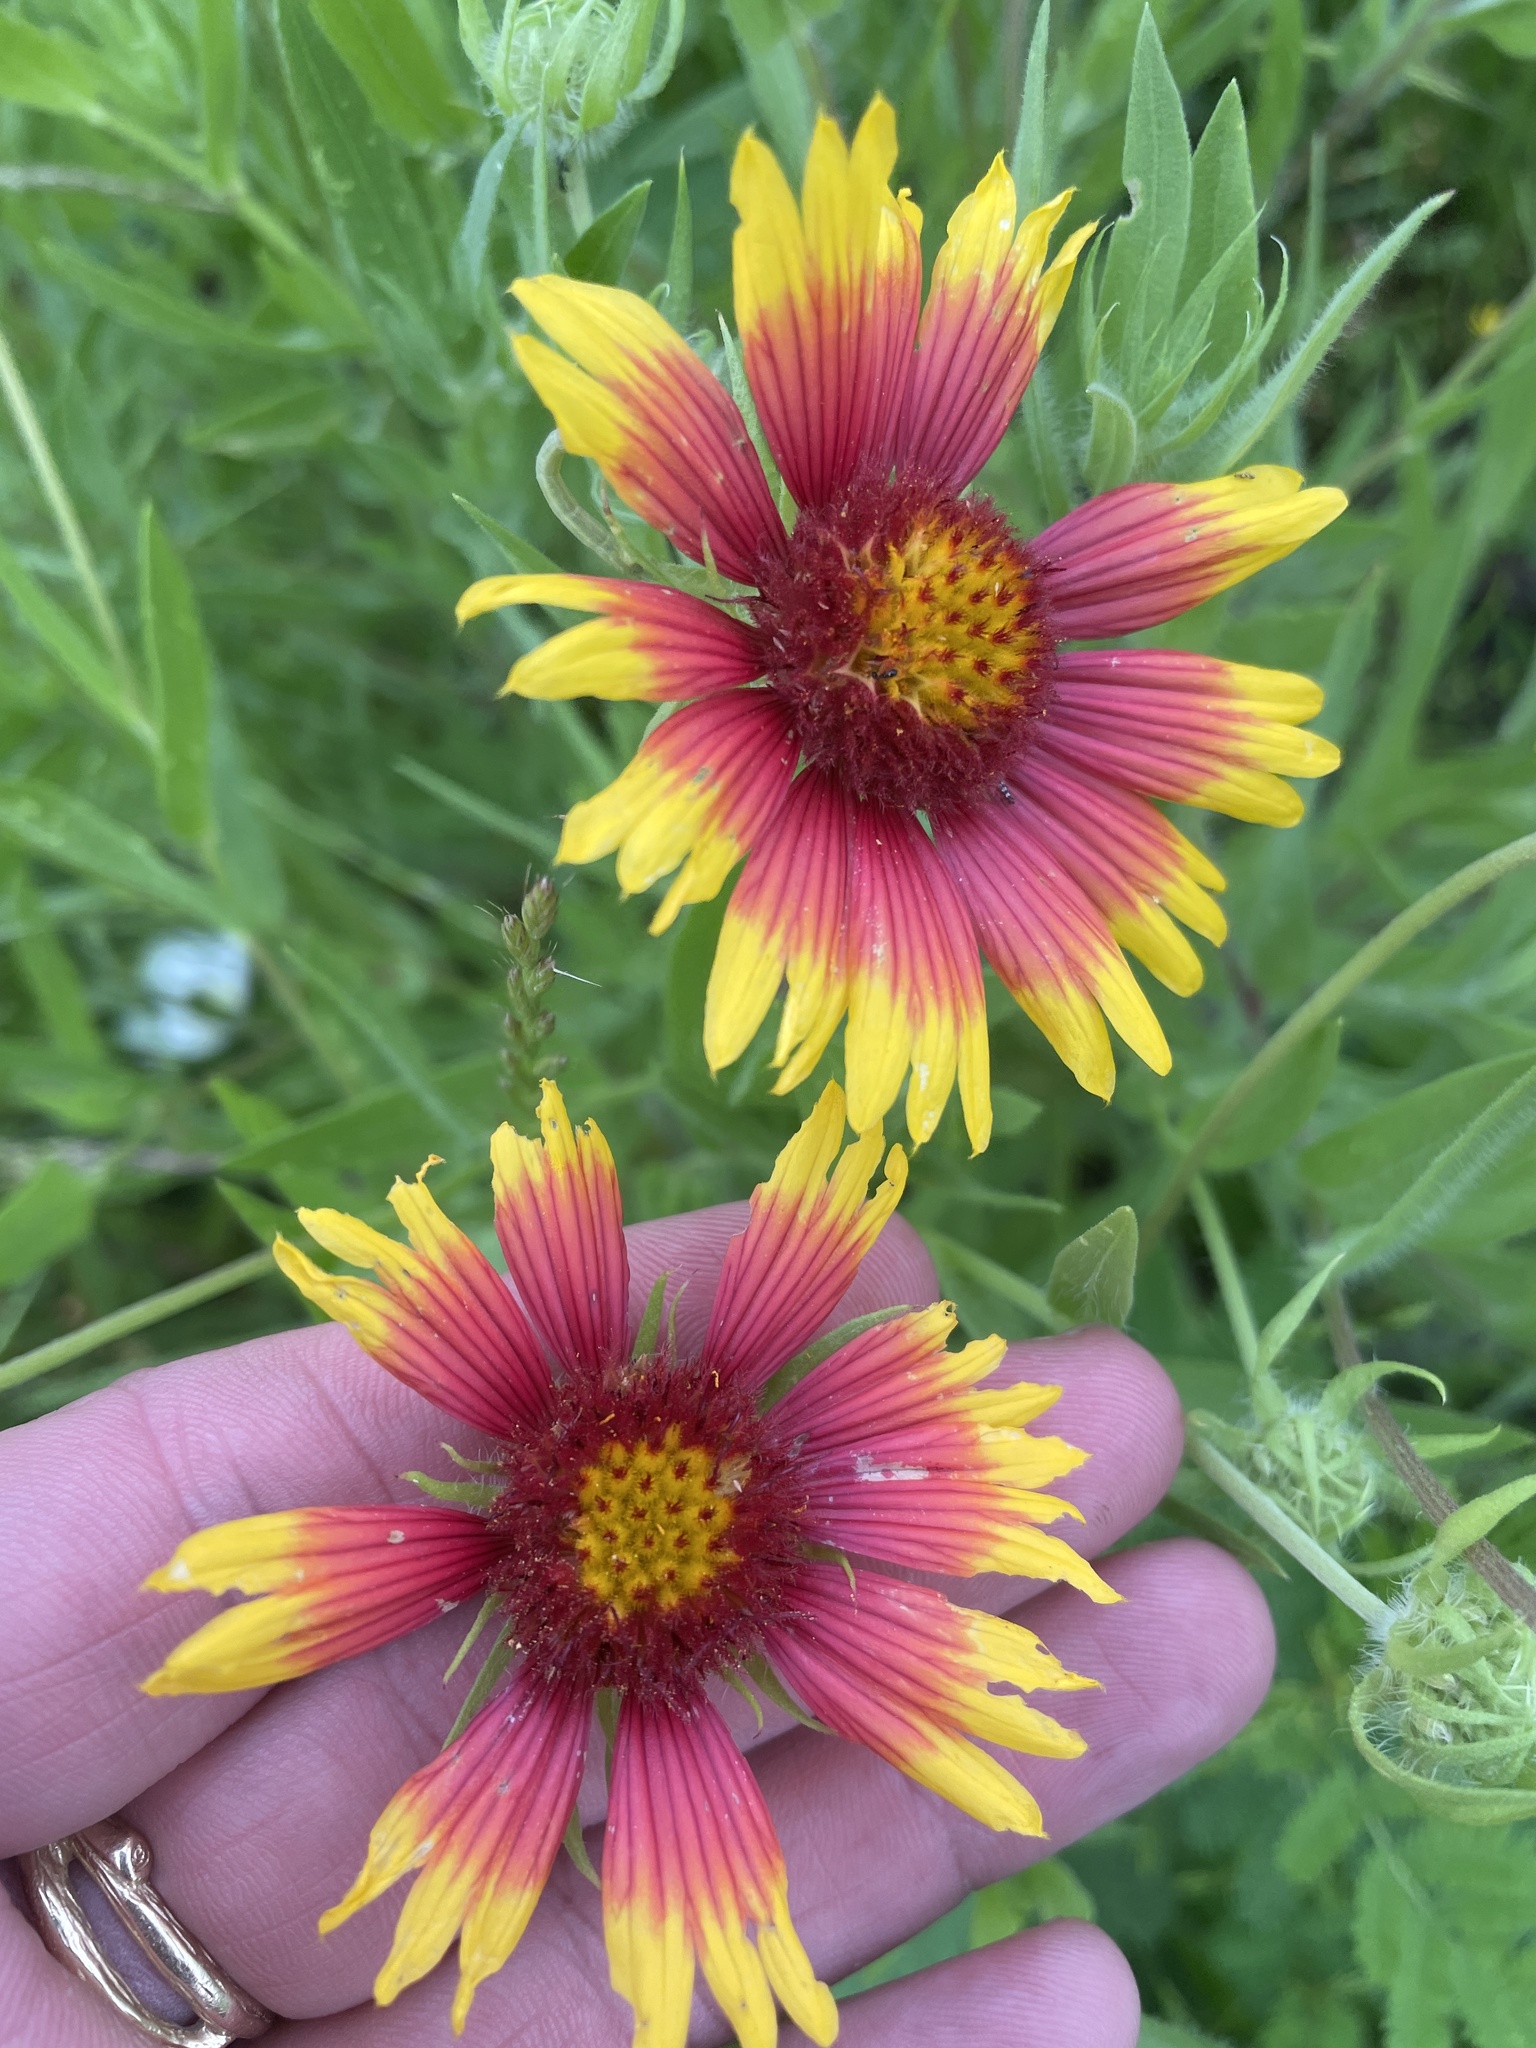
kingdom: Plantae
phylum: Tracheophyta
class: Magnoliopsida
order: Asterales
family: Asteraceae
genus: Gaillardia
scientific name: Gaillardia pulchella
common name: Firewheel
